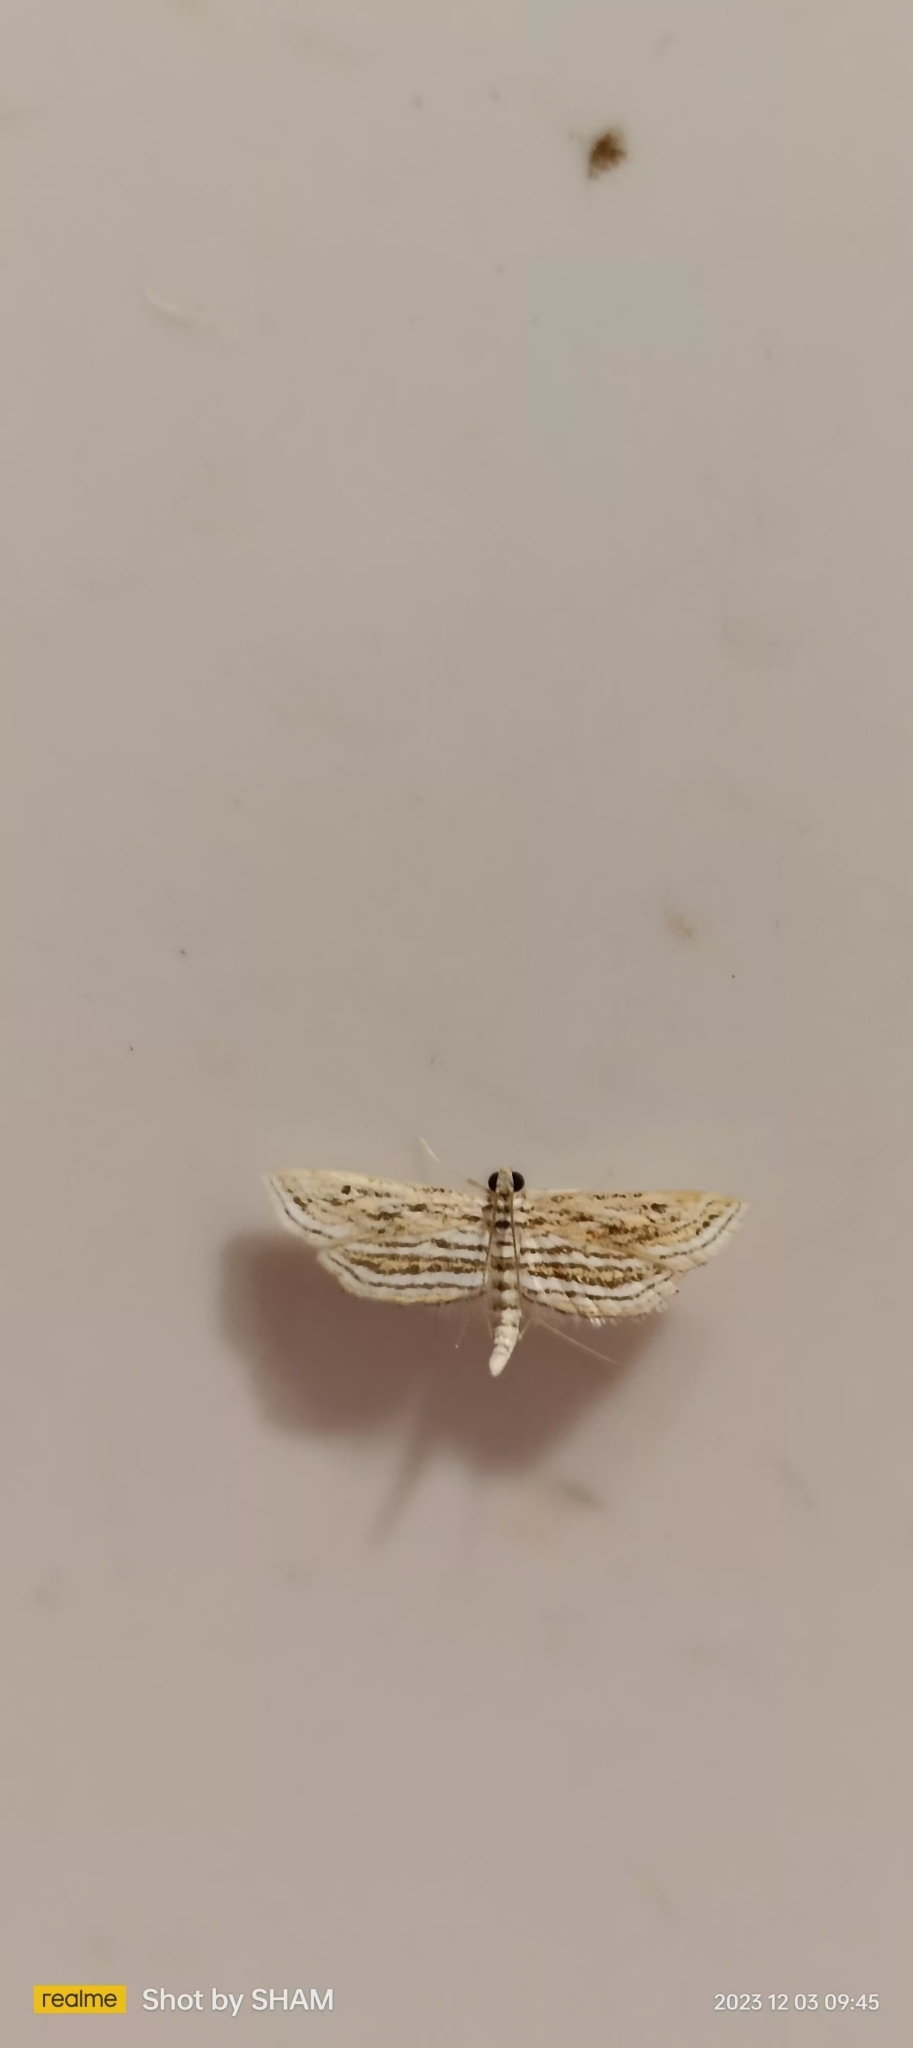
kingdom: Animalia
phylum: Arthropoda
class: Insecta
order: Lepidoptera
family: Crambidae
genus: Parapoynx
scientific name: Parapoynx fluctuosalis
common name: Moth
